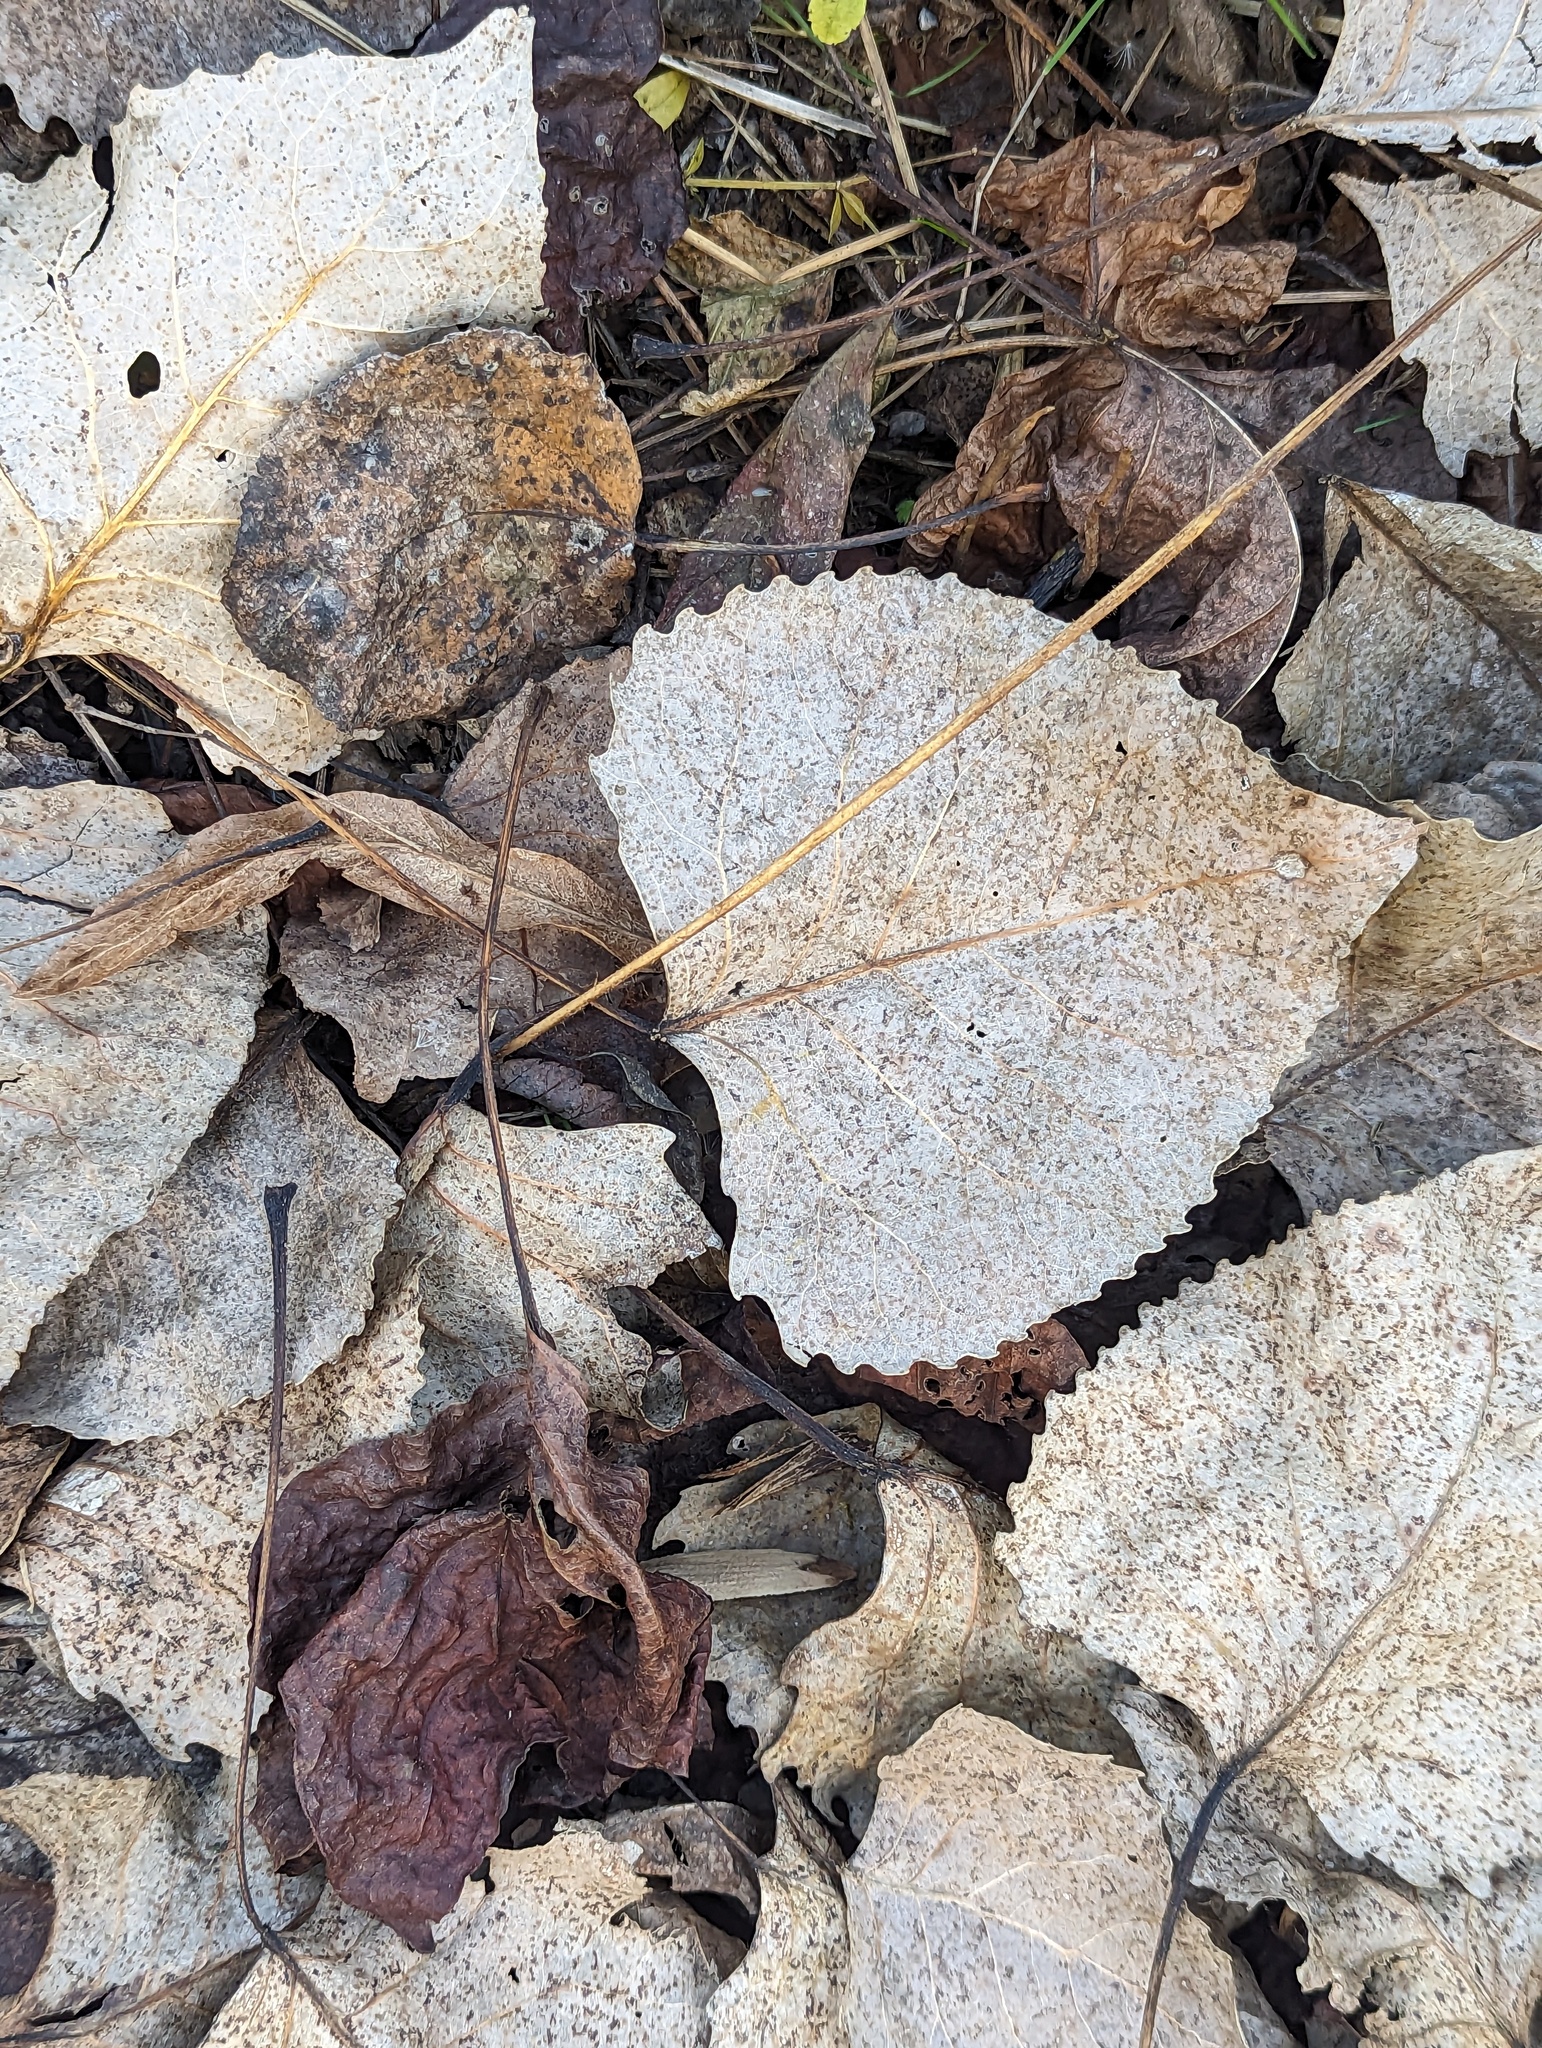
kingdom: Plantae
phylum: Tracheophyta
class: Magnoliopsida
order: Malpighiales
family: Salicaceae
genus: Populus
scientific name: Populus deltoides
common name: Eastern cottonwood
